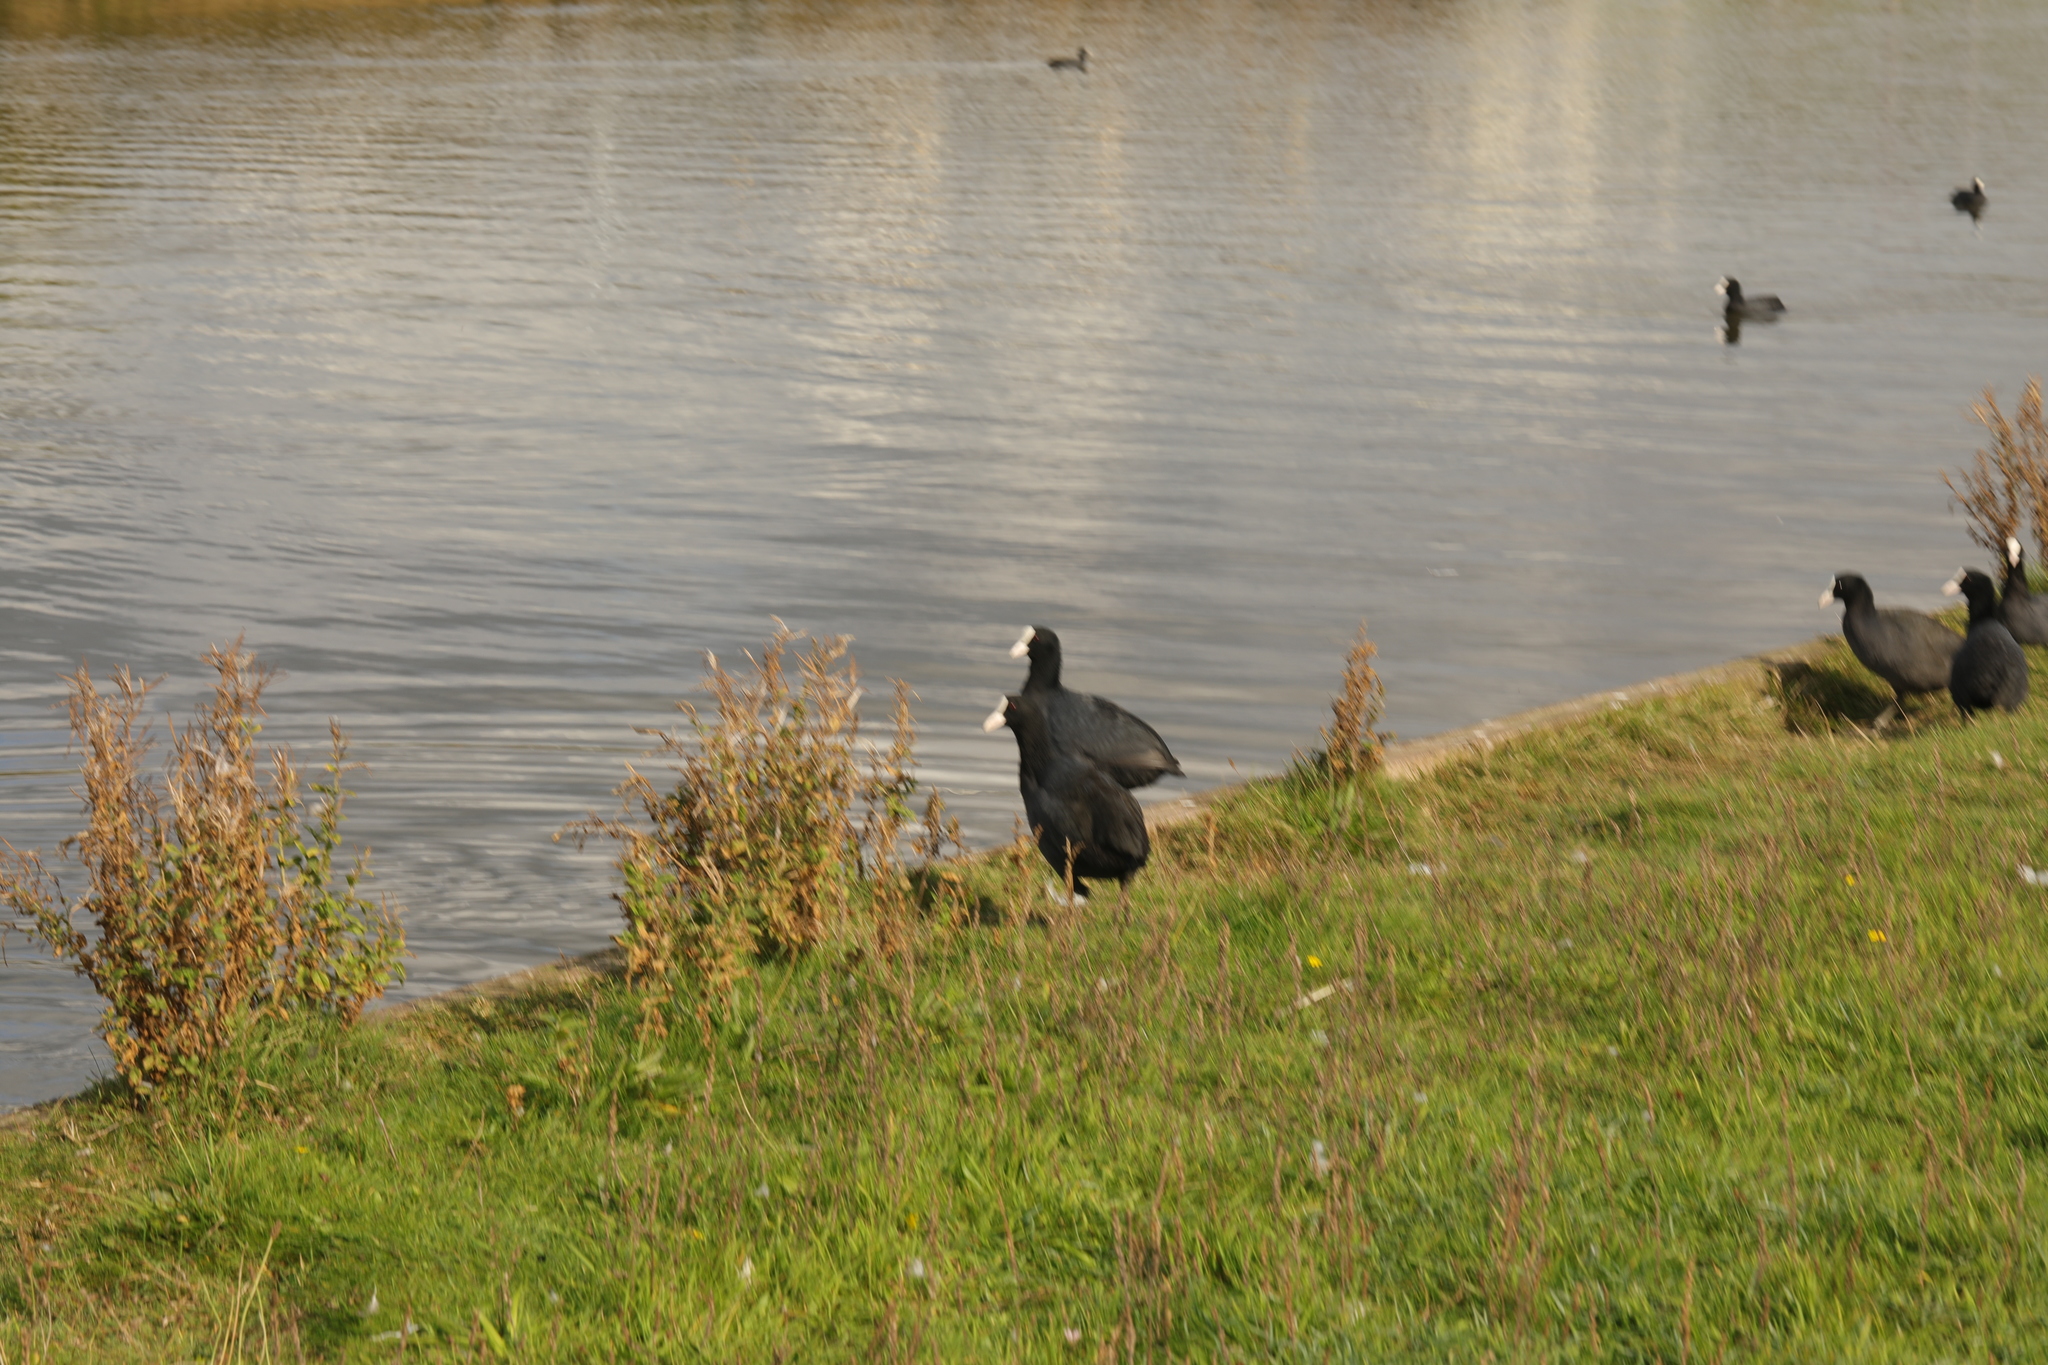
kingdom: Animalia
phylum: Chordata
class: Aves
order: Gruiformes
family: Rallidae
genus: Fulica
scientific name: Fulica atra
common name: Eurasian coot
